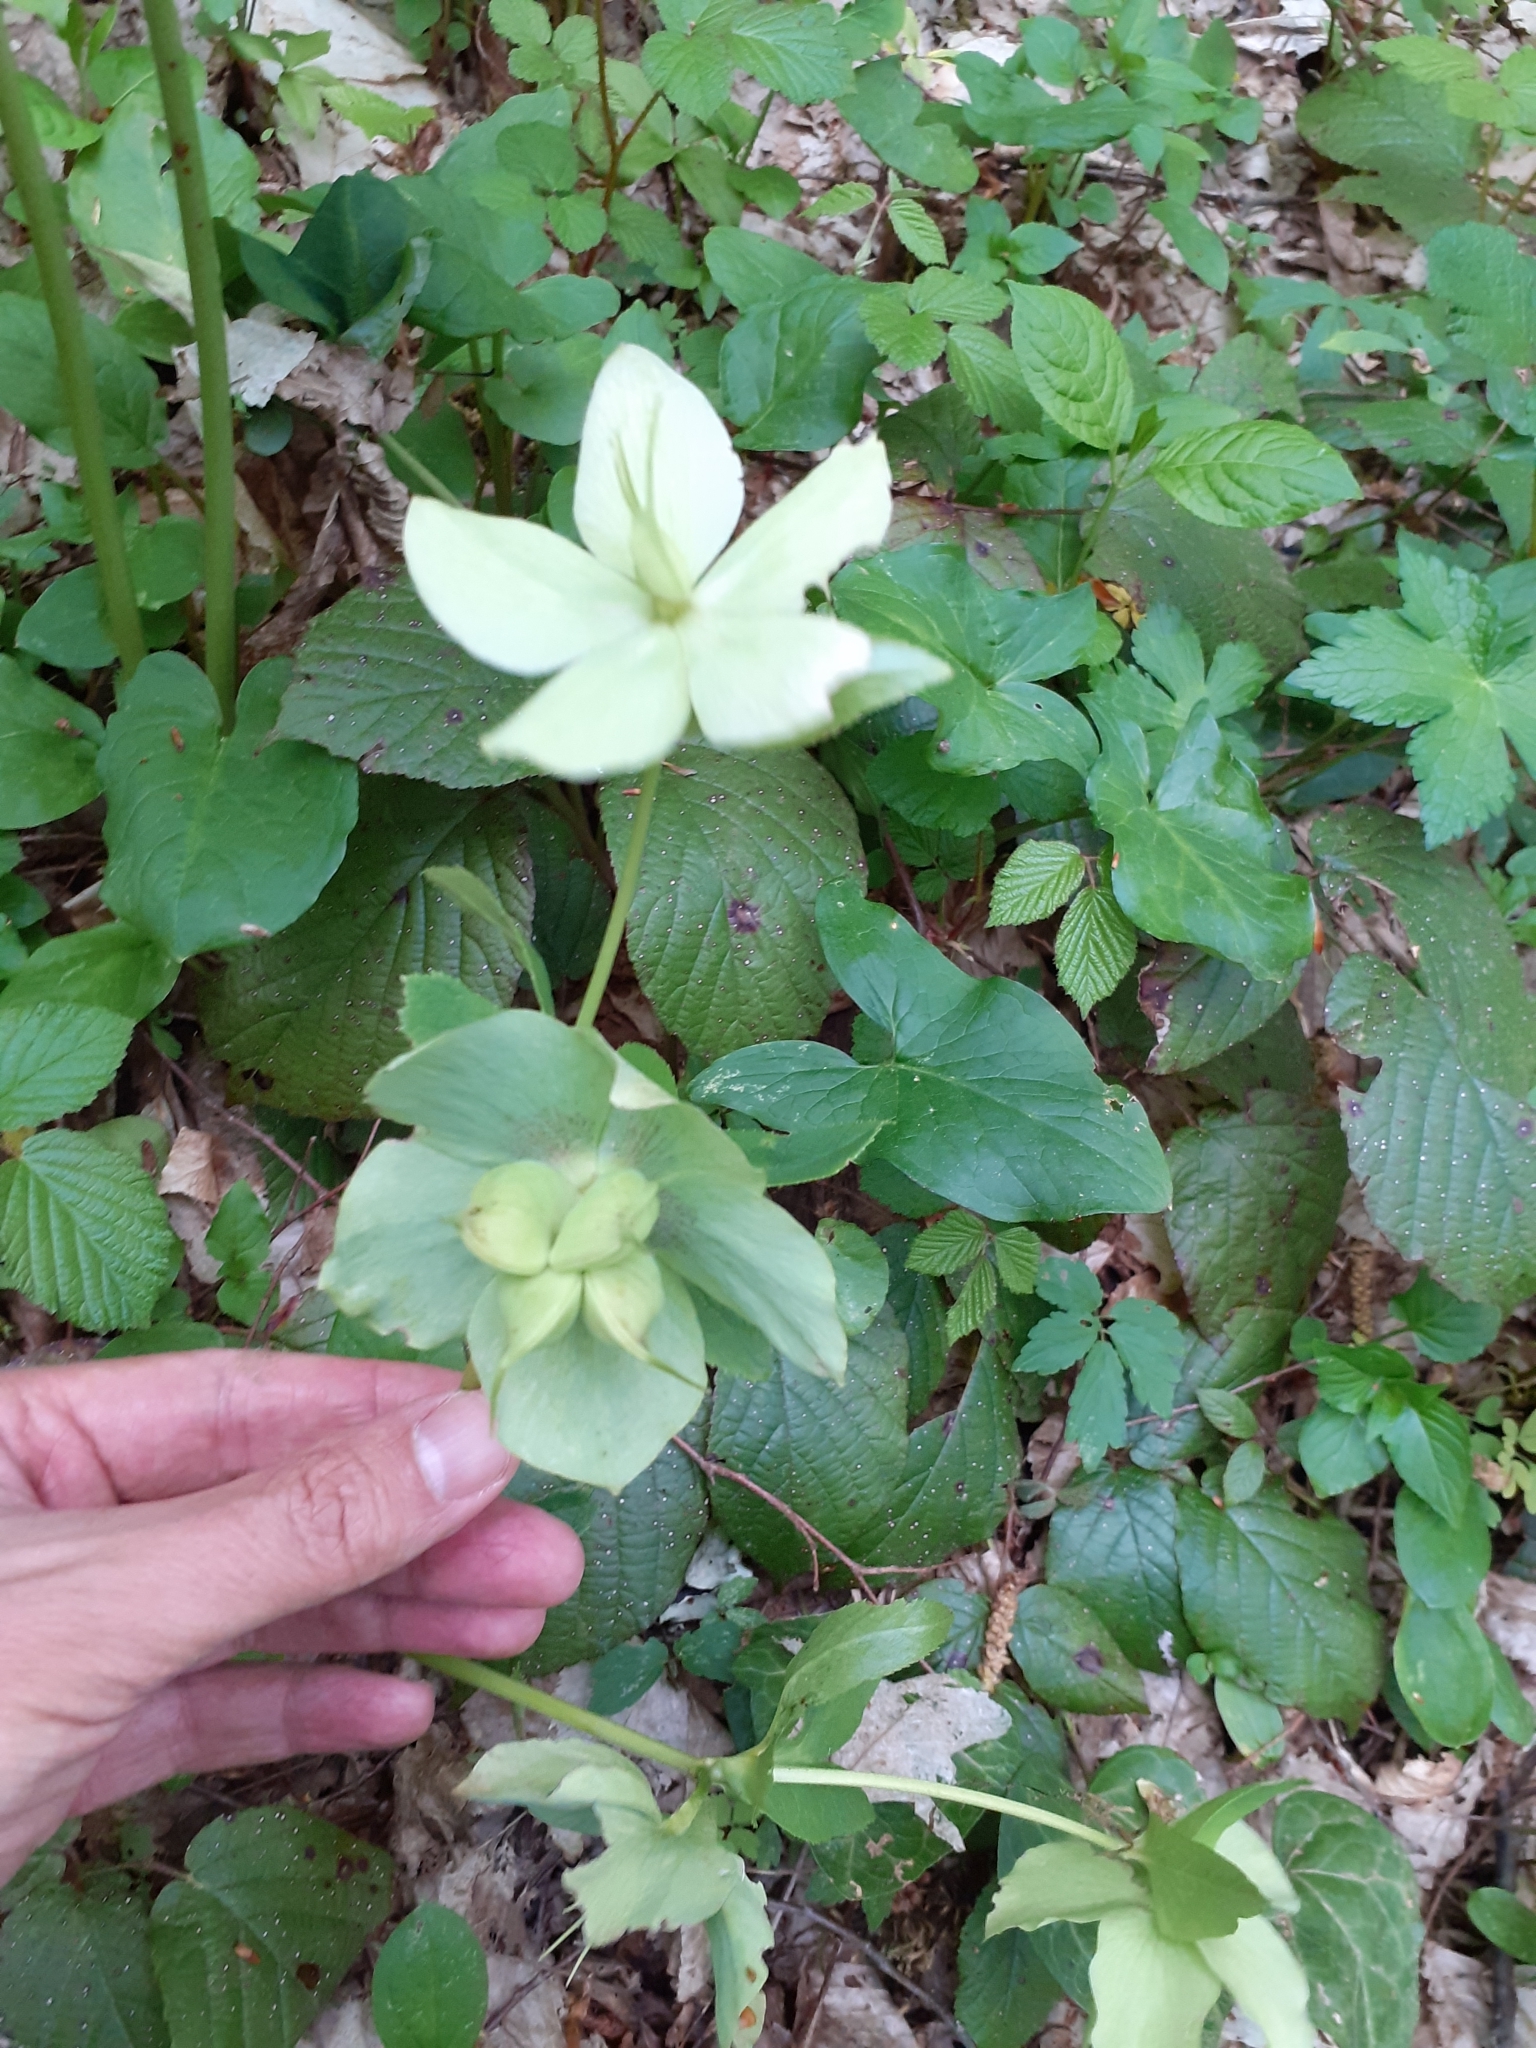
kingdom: Plantae
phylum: Tracheophyta
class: Magnoliopsida
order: Ranunculales
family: Ranunculaceae
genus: Helleborus
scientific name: Helleborus orientalis
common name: Lenten-rose
